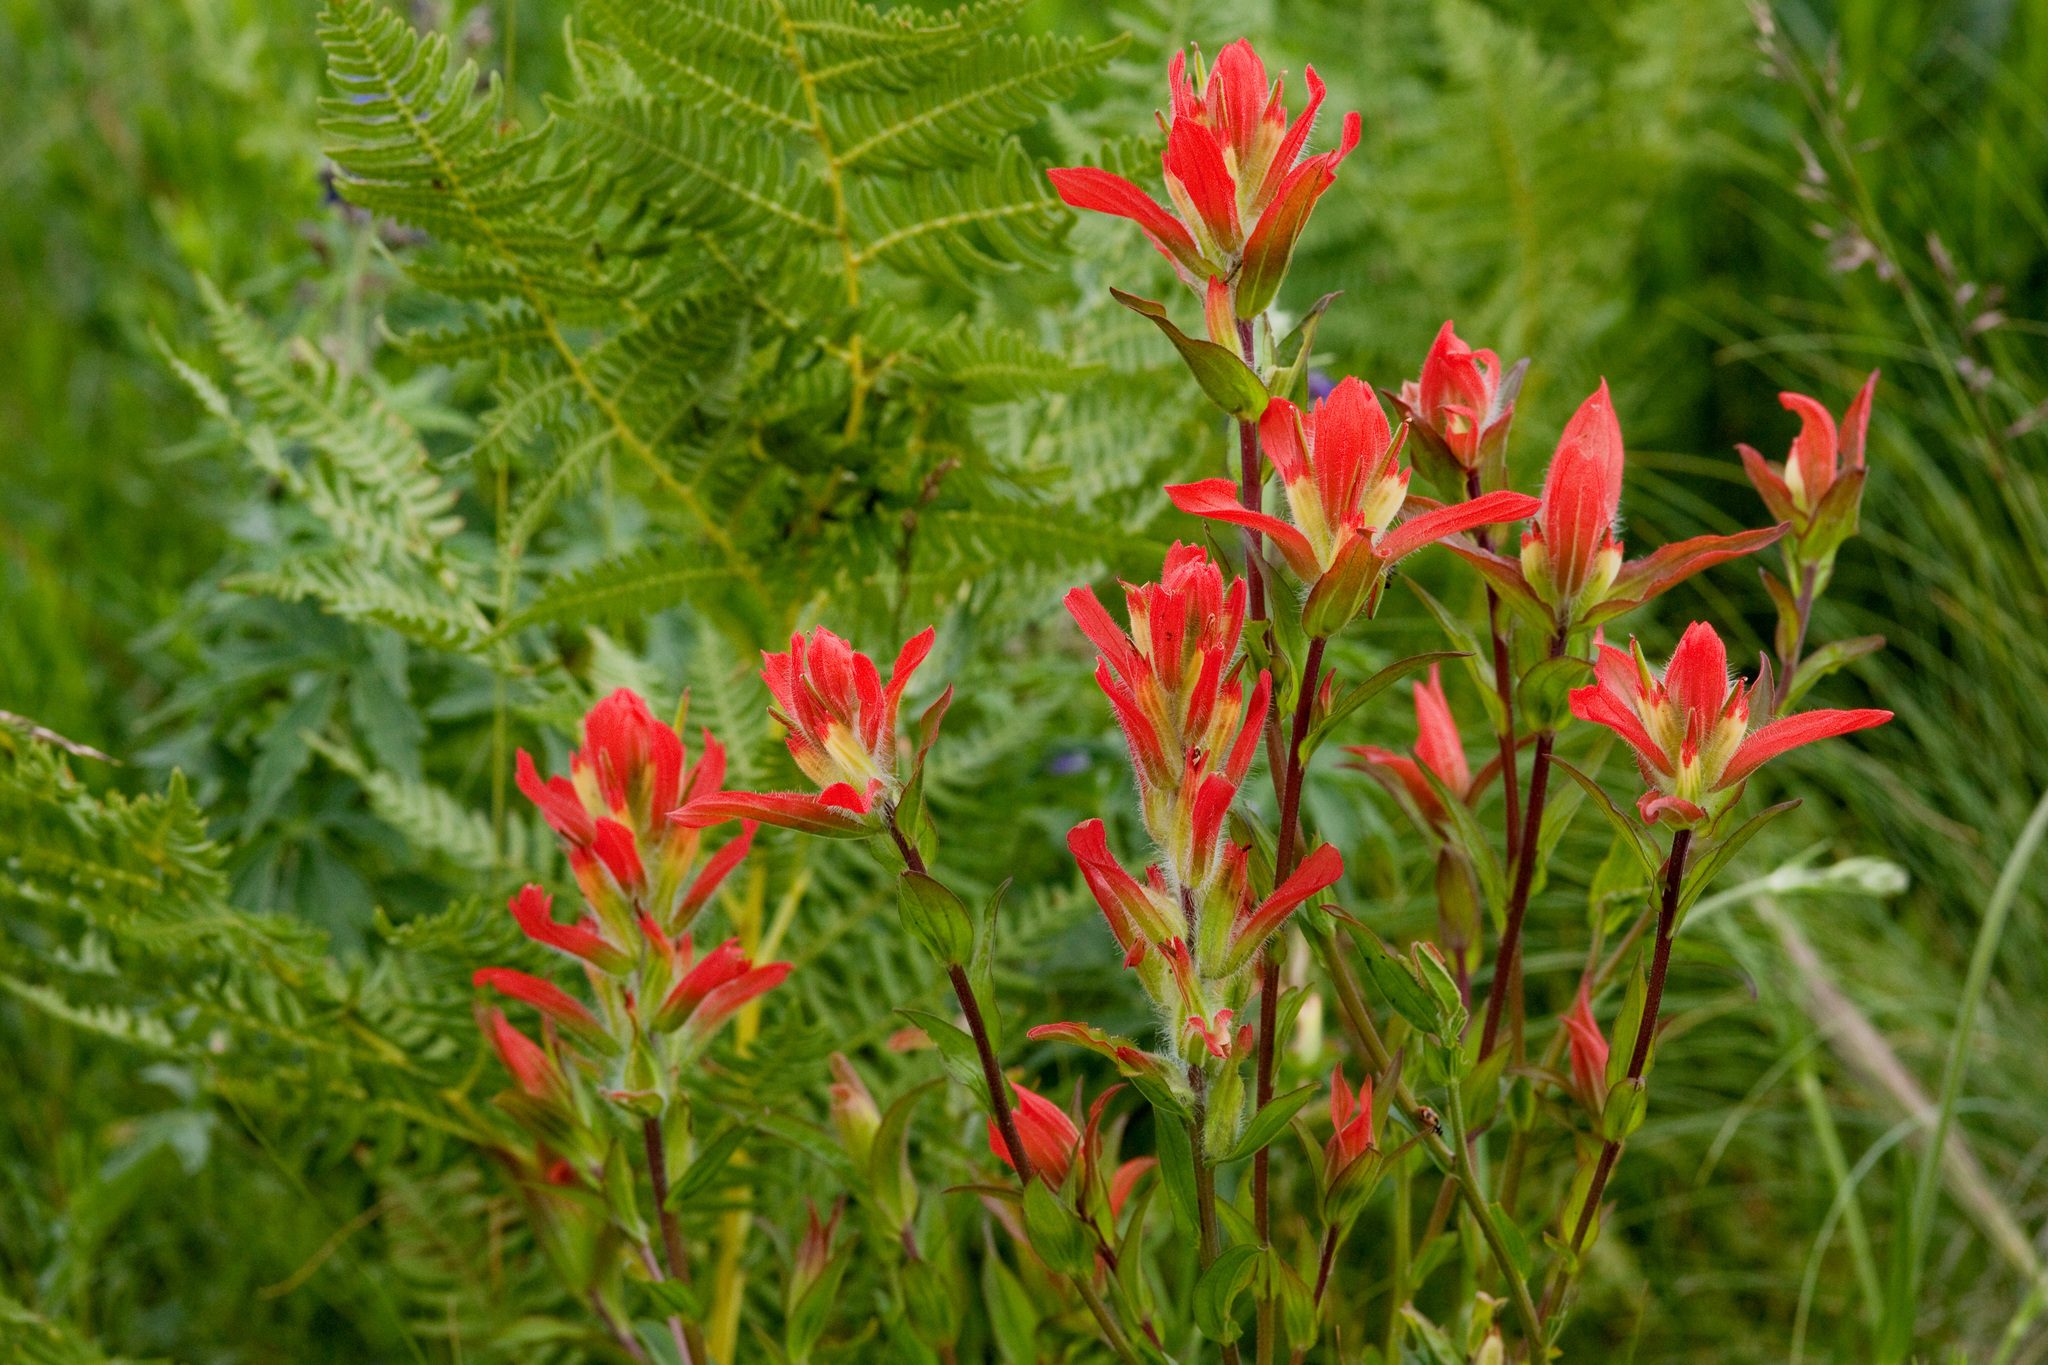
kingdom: Plantae
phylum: Tracheophyta
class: Magnoliopsida
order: Lamiales
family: Orobanchaceae
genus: Castilleja
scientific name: Castilleja nelsonii
